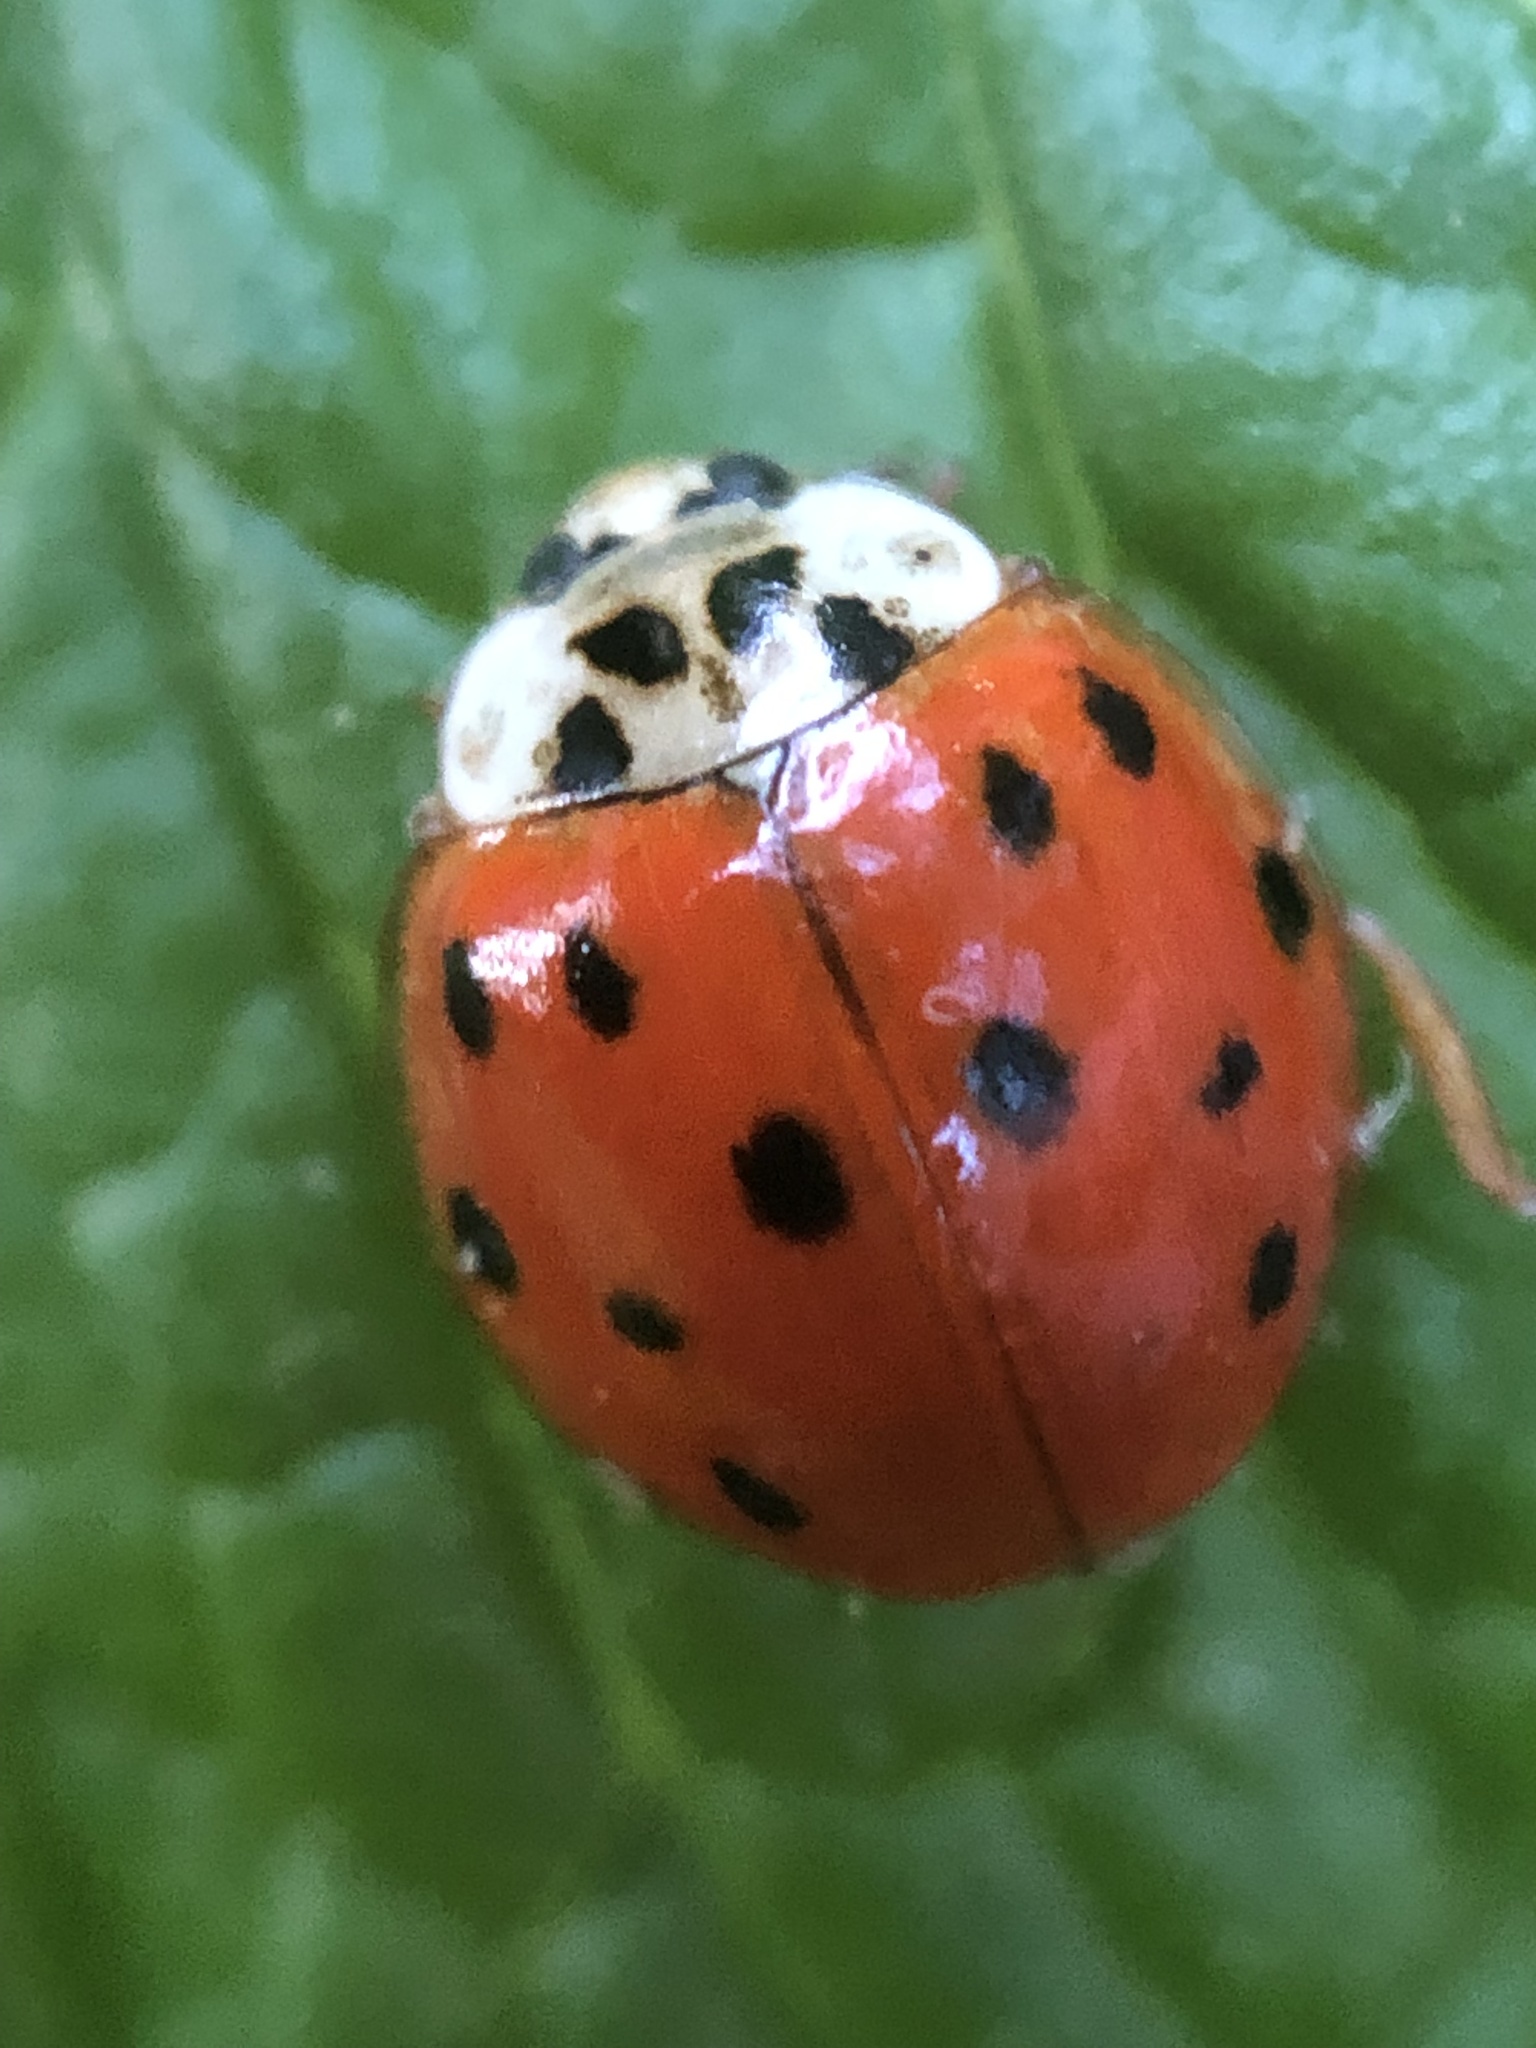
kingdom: Animalia
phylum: Arthropoda
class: Insecta
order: Coleoptera
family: Coccinellidae
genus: Harmonia
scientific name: Harmonia axyridis
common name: Harlequin ladybird
